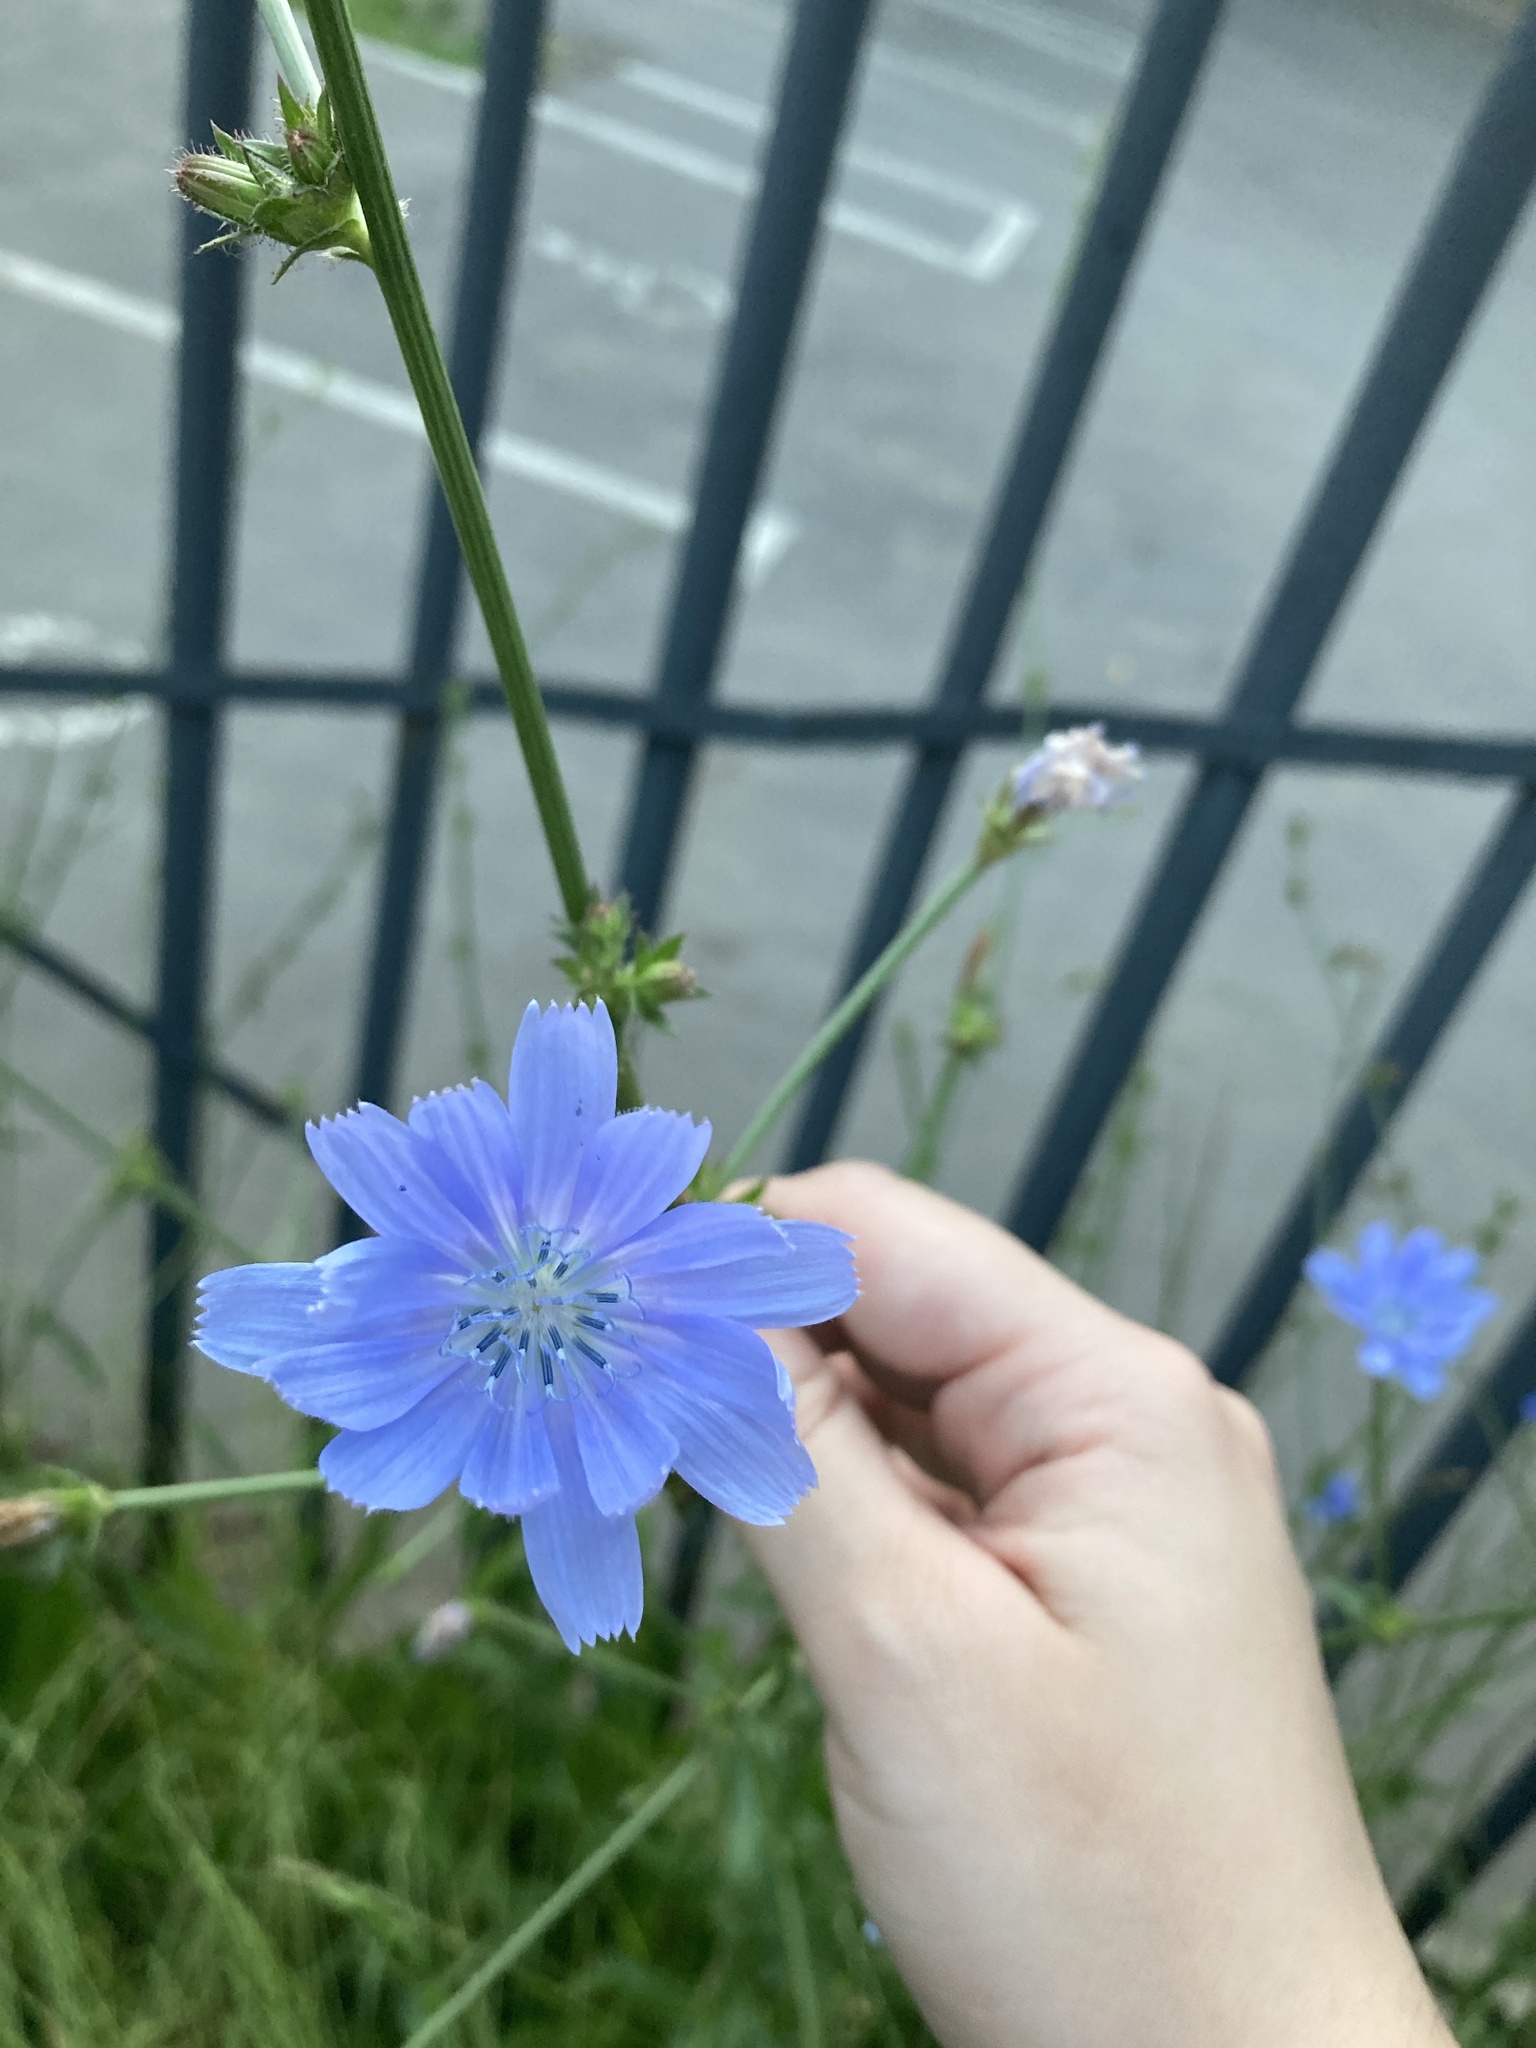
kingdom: Plantae
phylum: Tracheophyta
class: Magnoliopsida
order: Asterales
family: Asteraceae
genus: Cichorium
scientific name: Cichorium intybus
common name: Chicory
